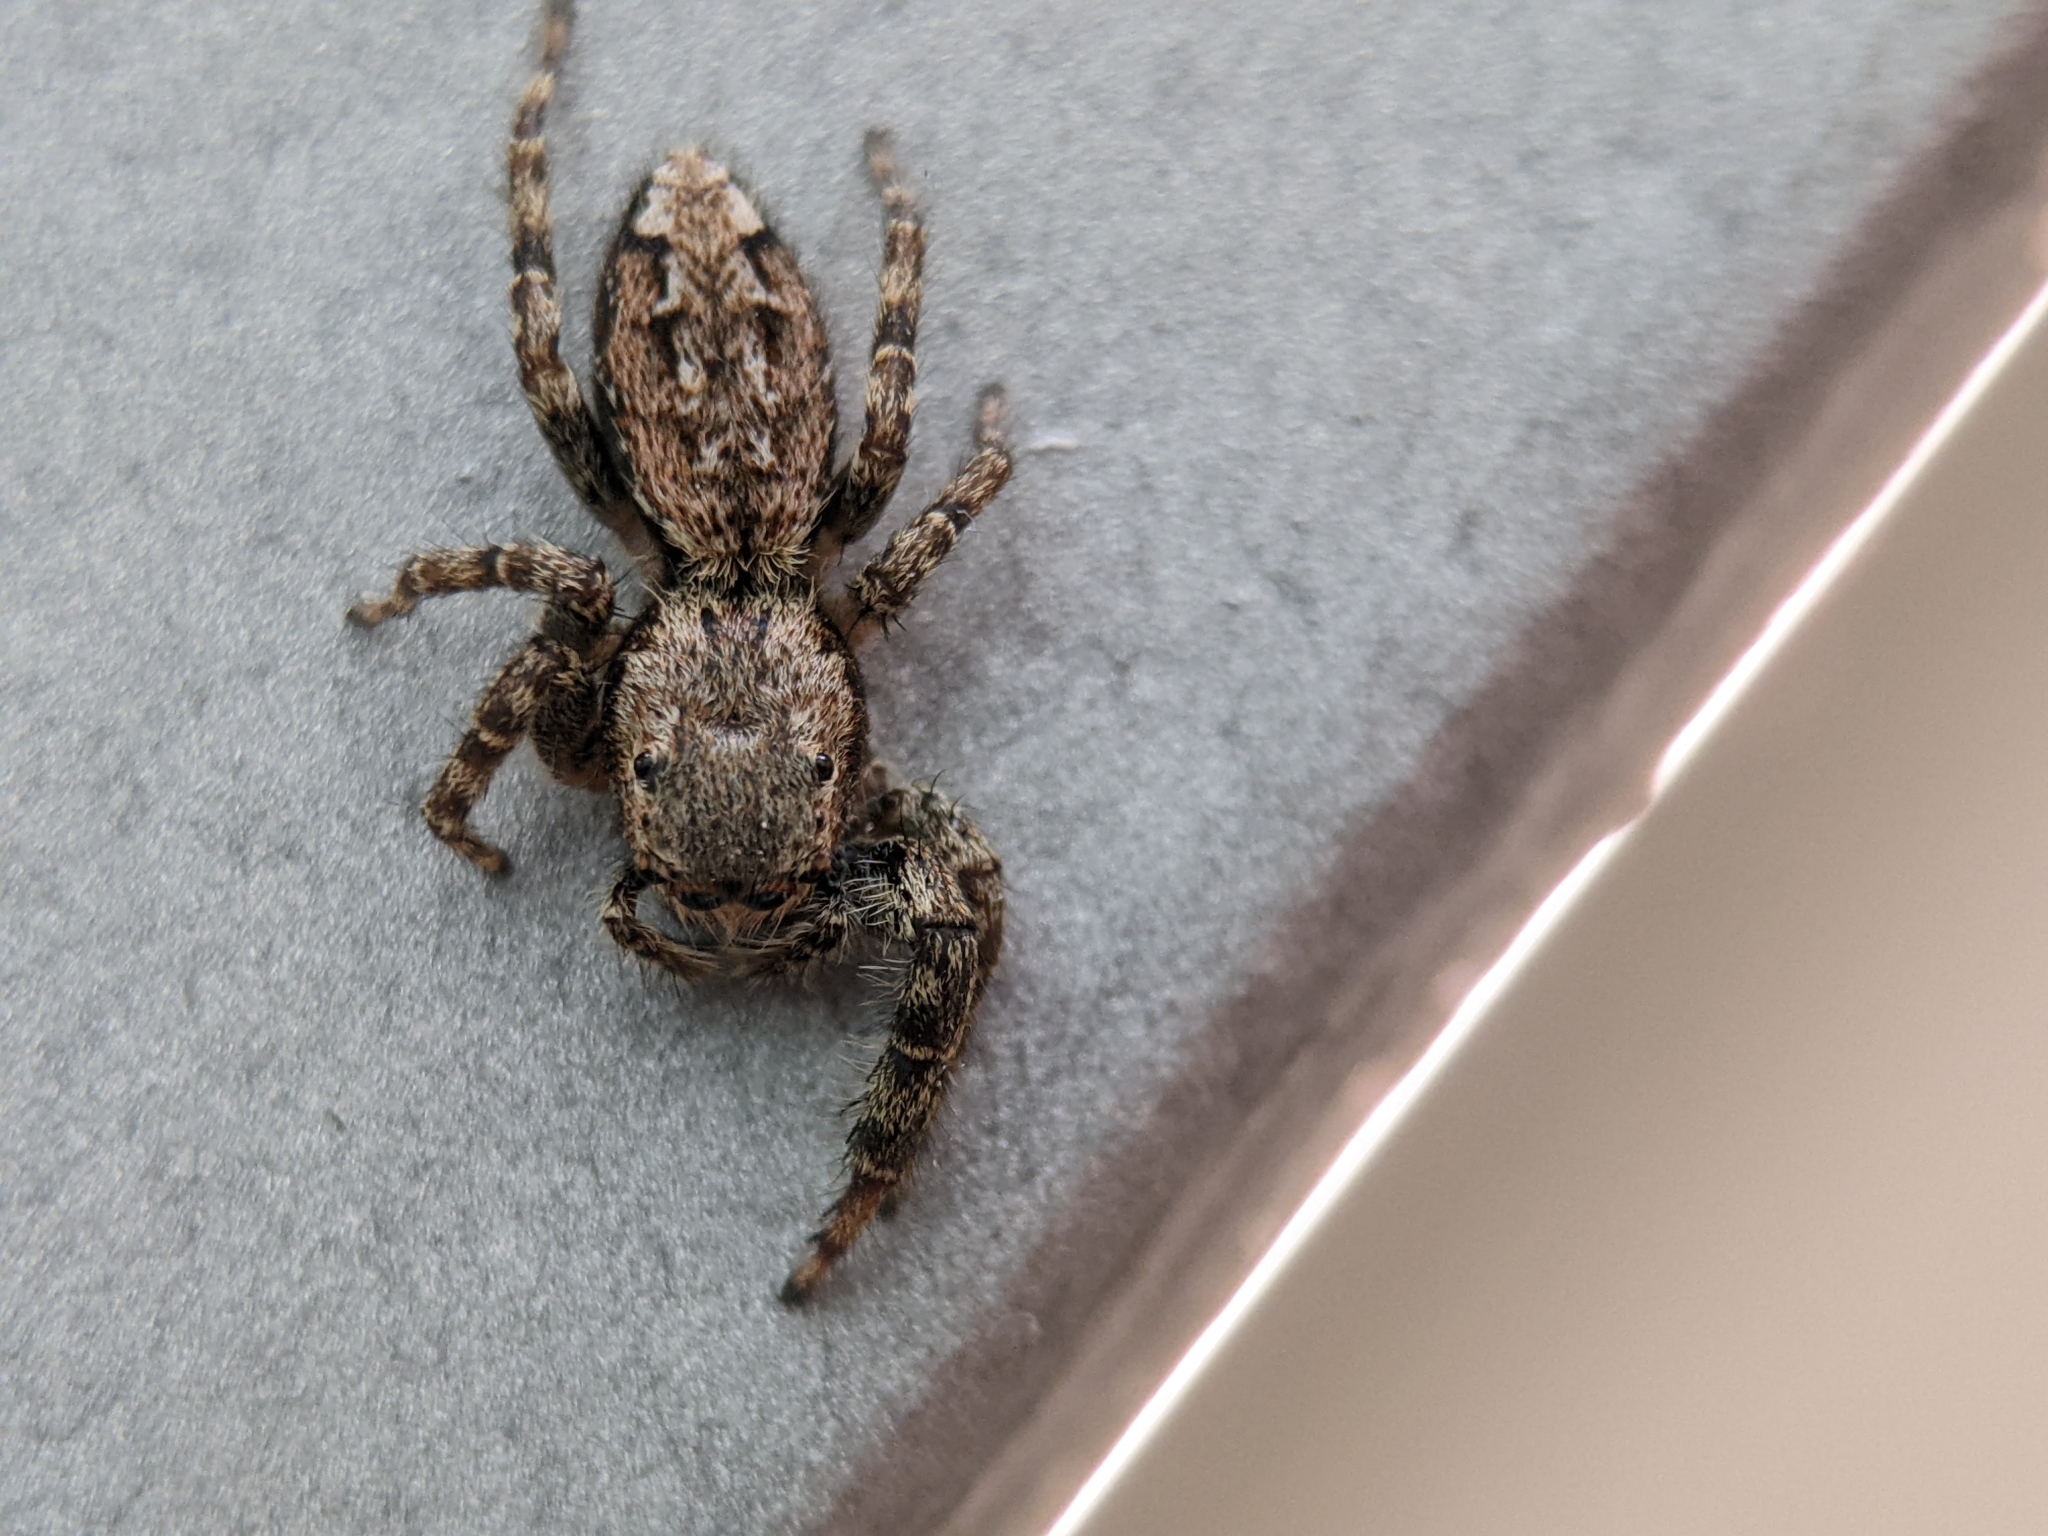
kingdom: Animalia
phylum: Arthropoda
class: Arachnida
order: Araneae
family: Salticidae
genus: Marpissa
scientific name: Marpissa muscosa
